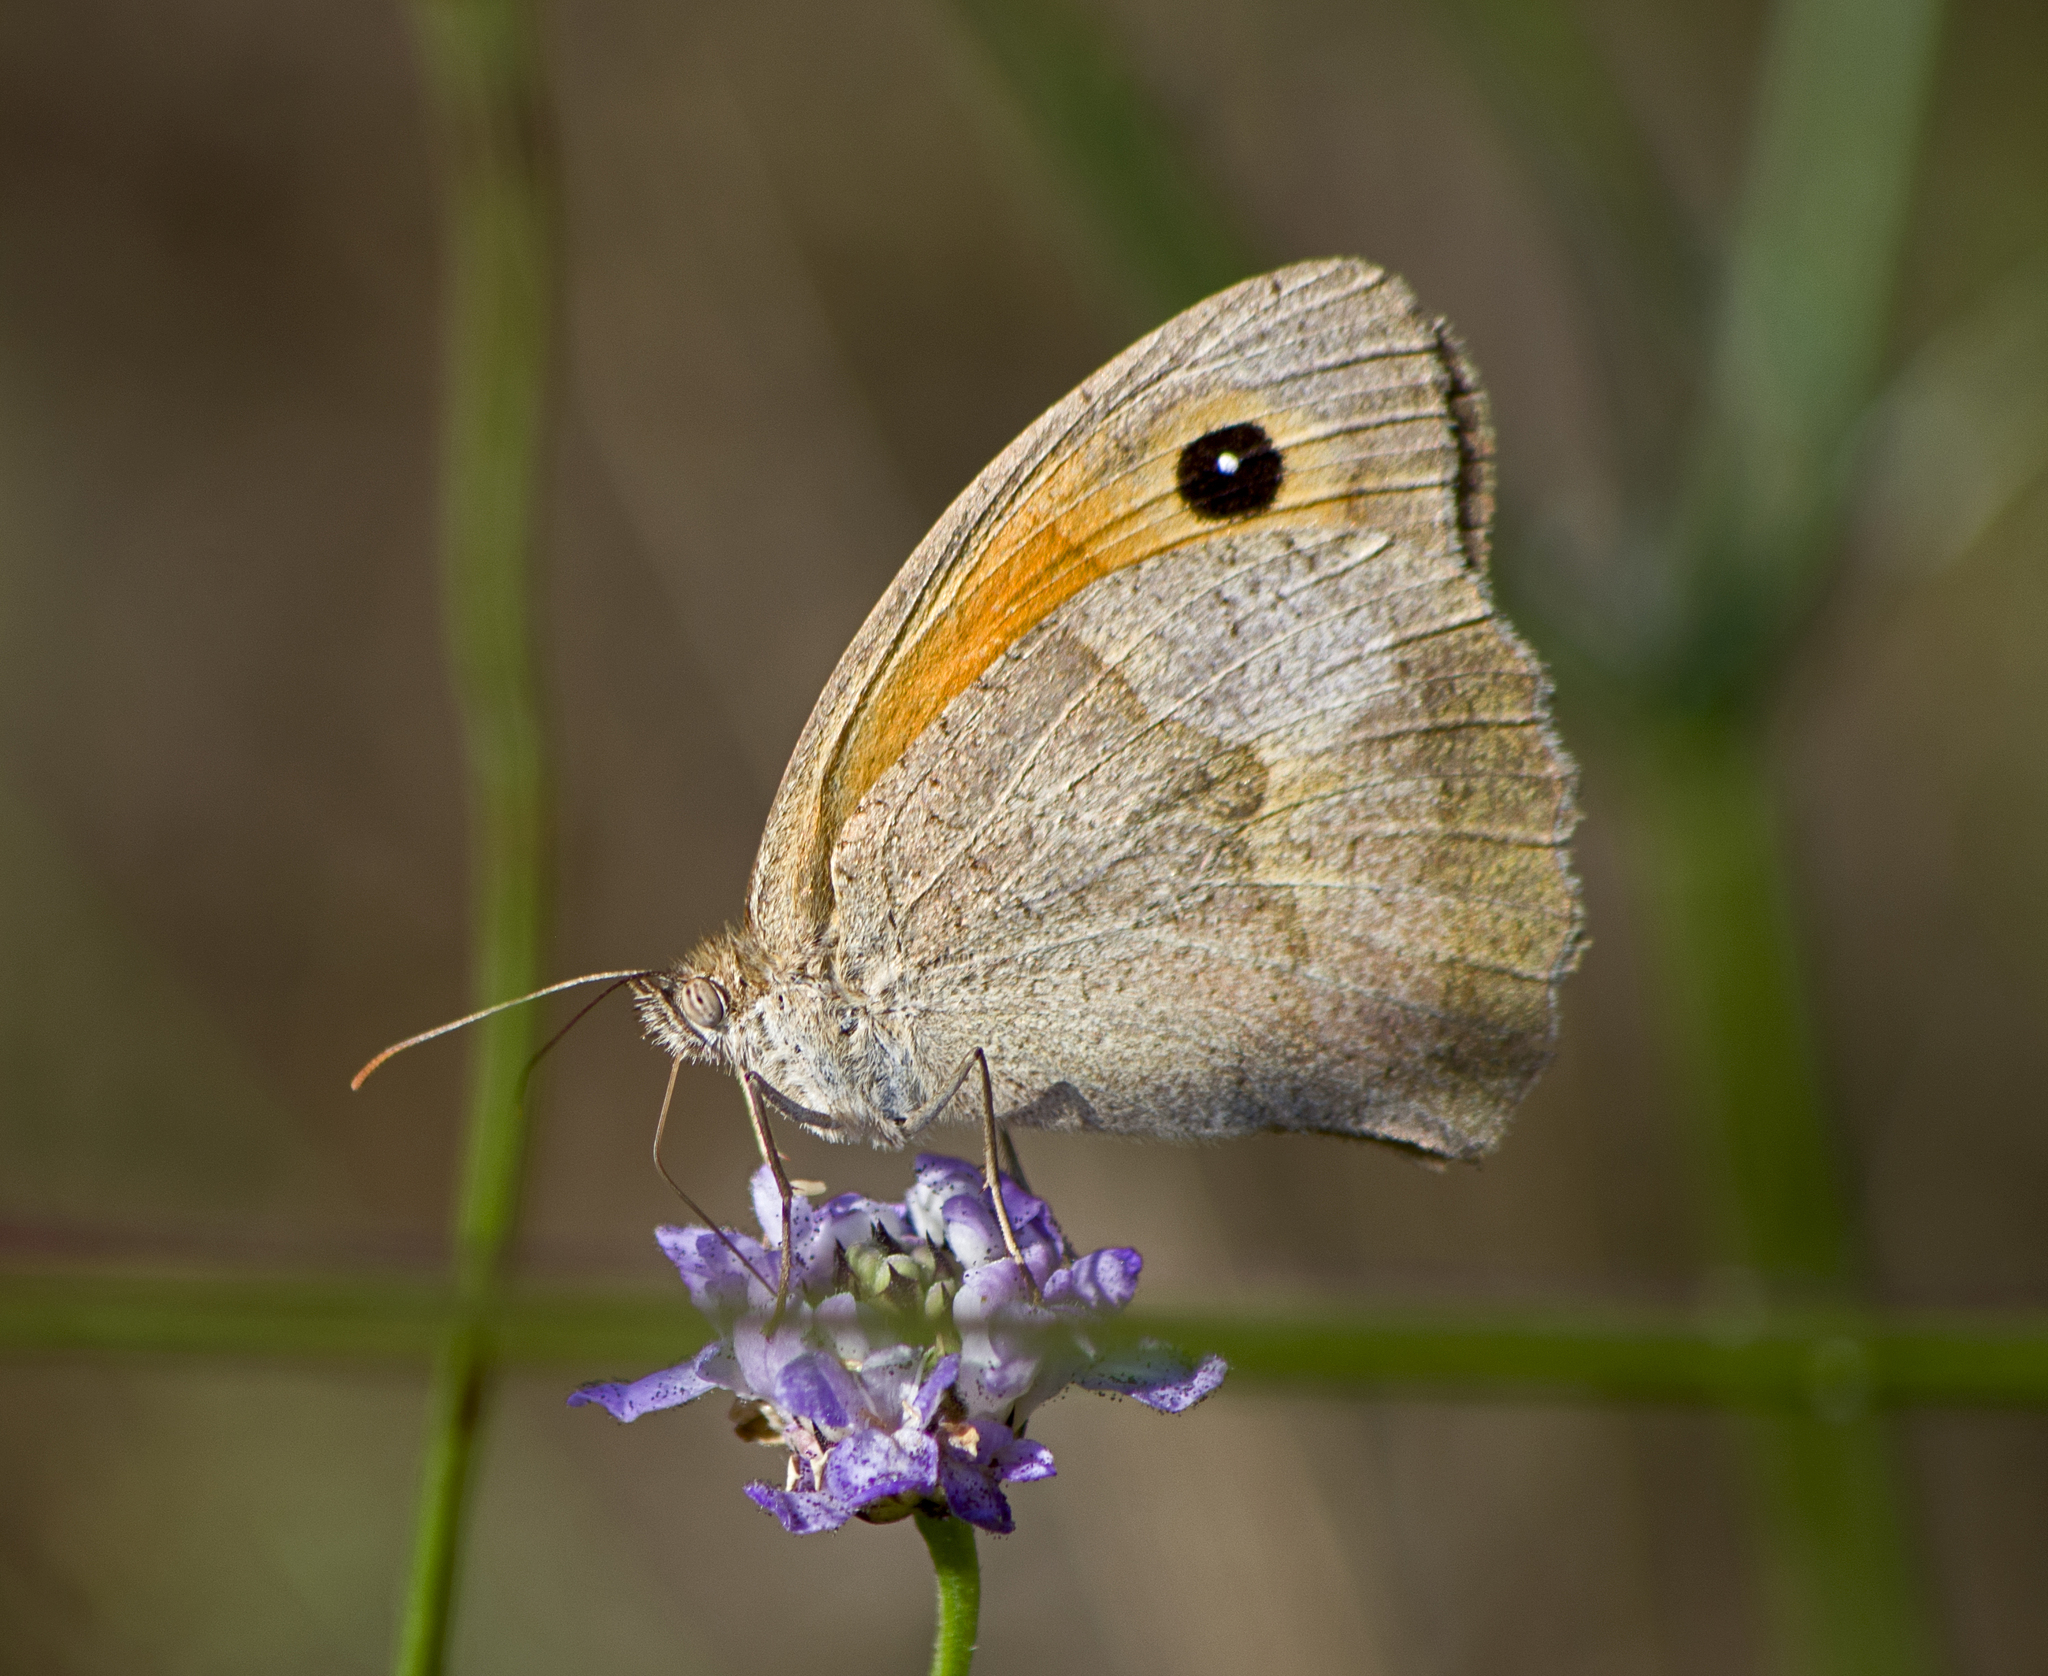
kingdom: Animalia
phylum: Arthropoda
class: Insecta
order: Lepidoptera
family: Nymphalidae
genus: Maniola
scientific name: Maniola jurtina
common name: Meadow brown
